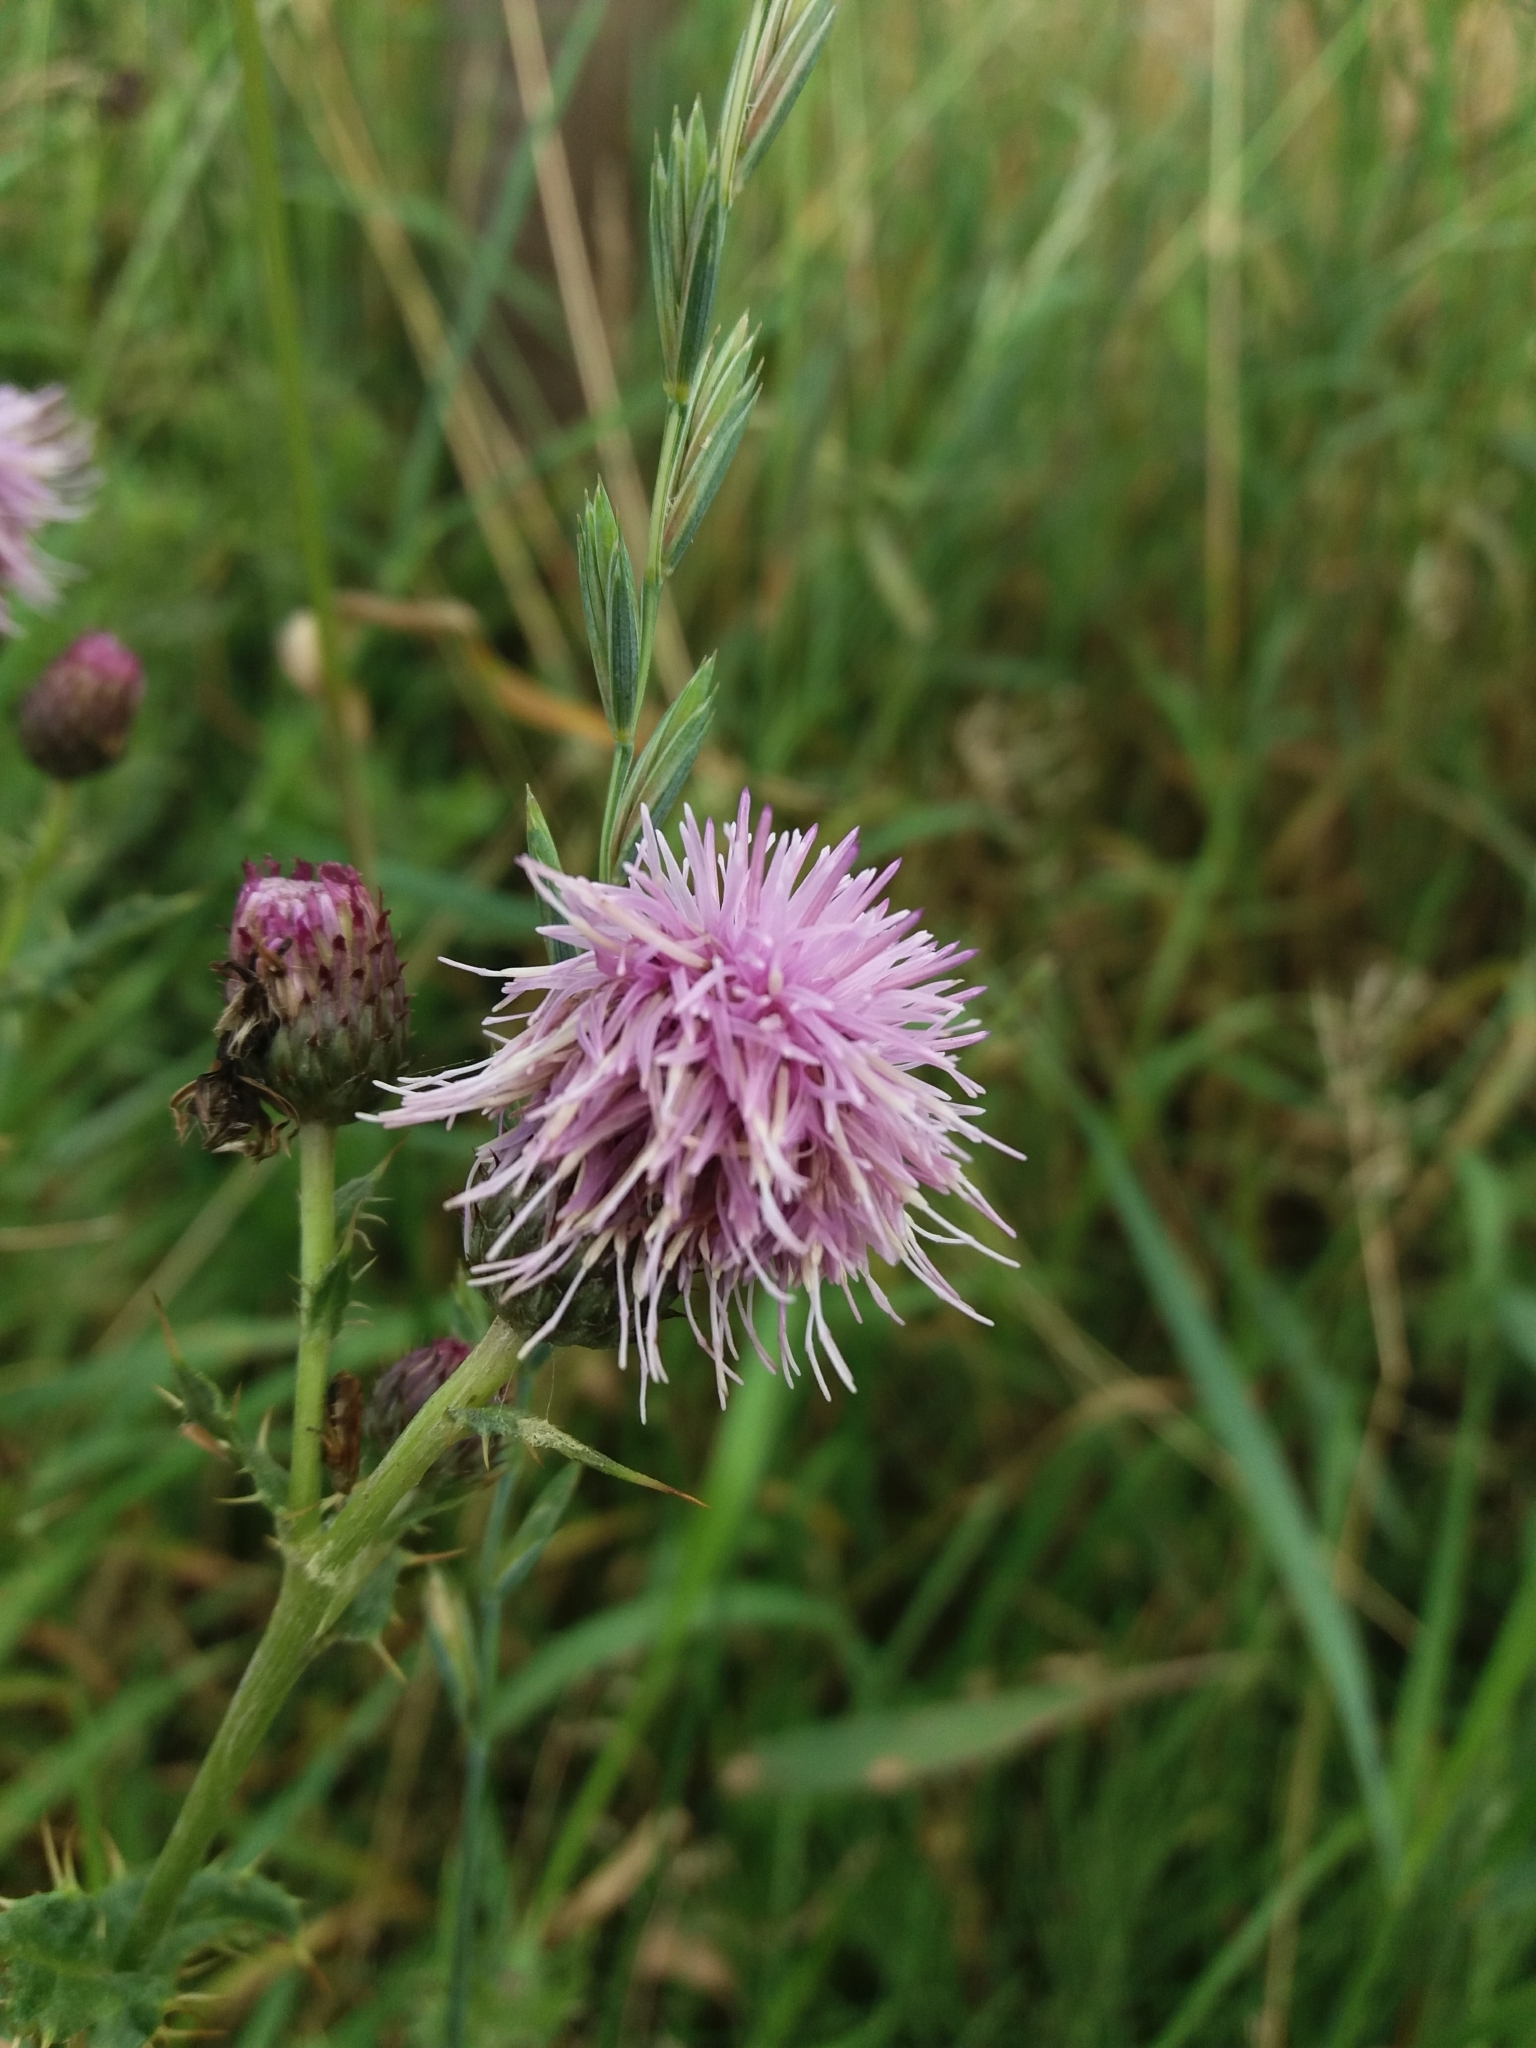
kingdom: Plantae
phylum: Tracheophyta
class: Magnoliopsida
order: Asterales
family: Asteraceae
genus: Cirsium
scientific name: Cirsium arvense
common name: Creeping thistle
